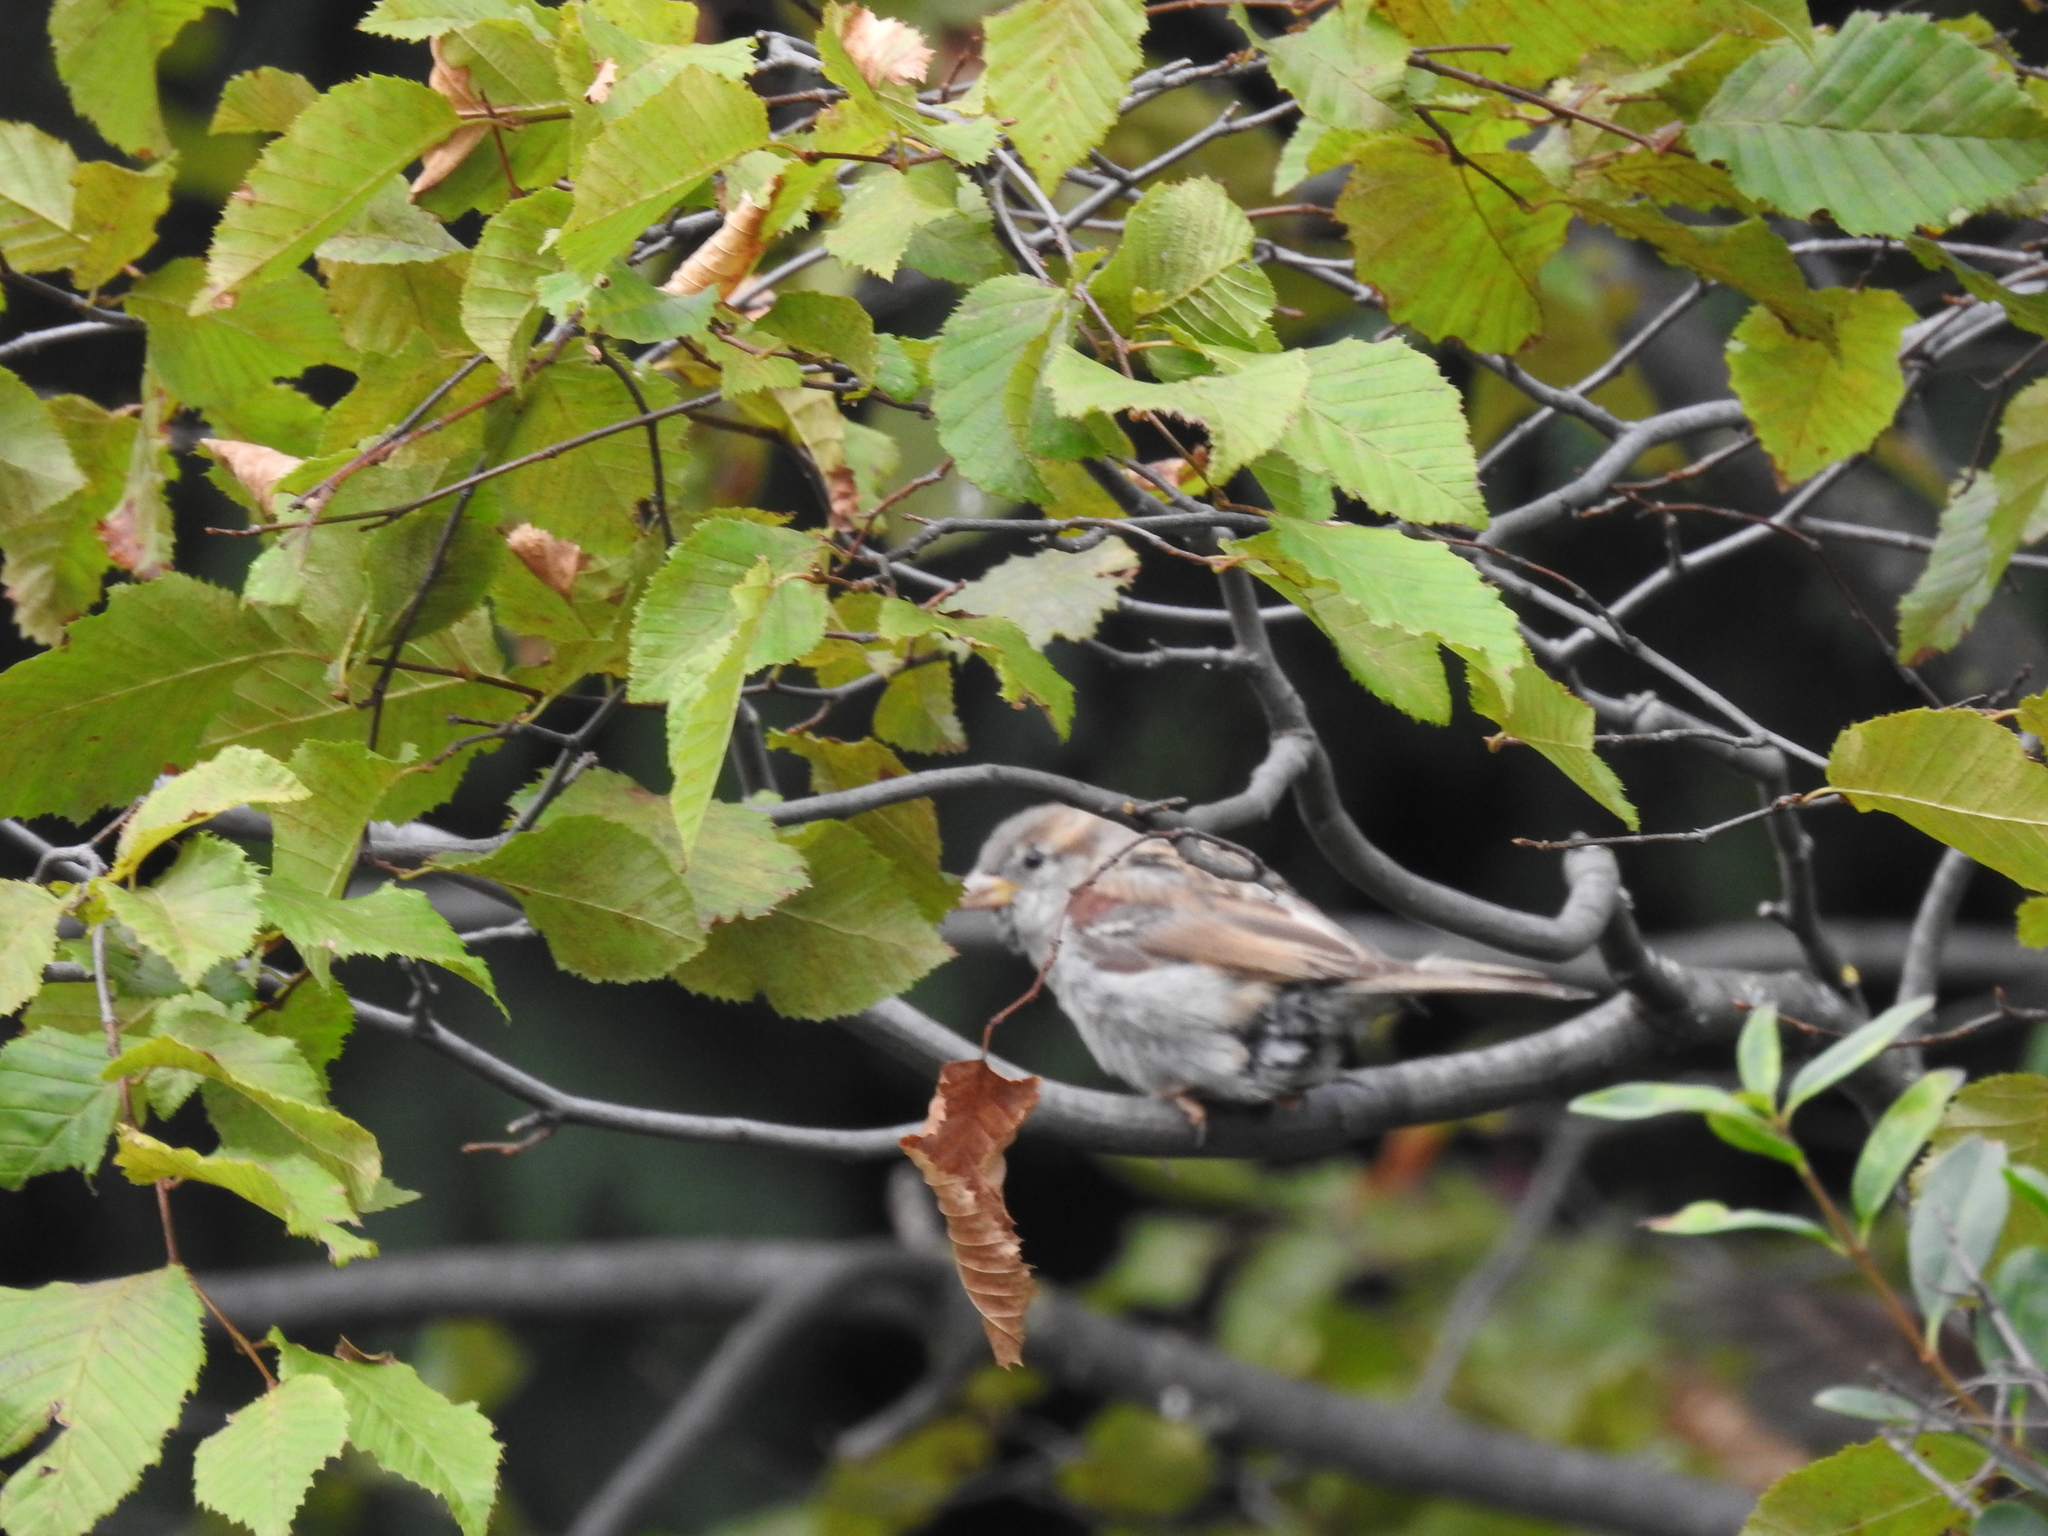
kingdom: Animalia
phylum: Chordata
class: Aves
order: Passeriformes
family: Passeridae
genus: Passer
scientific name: Passer domesticus
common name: House sparrow
